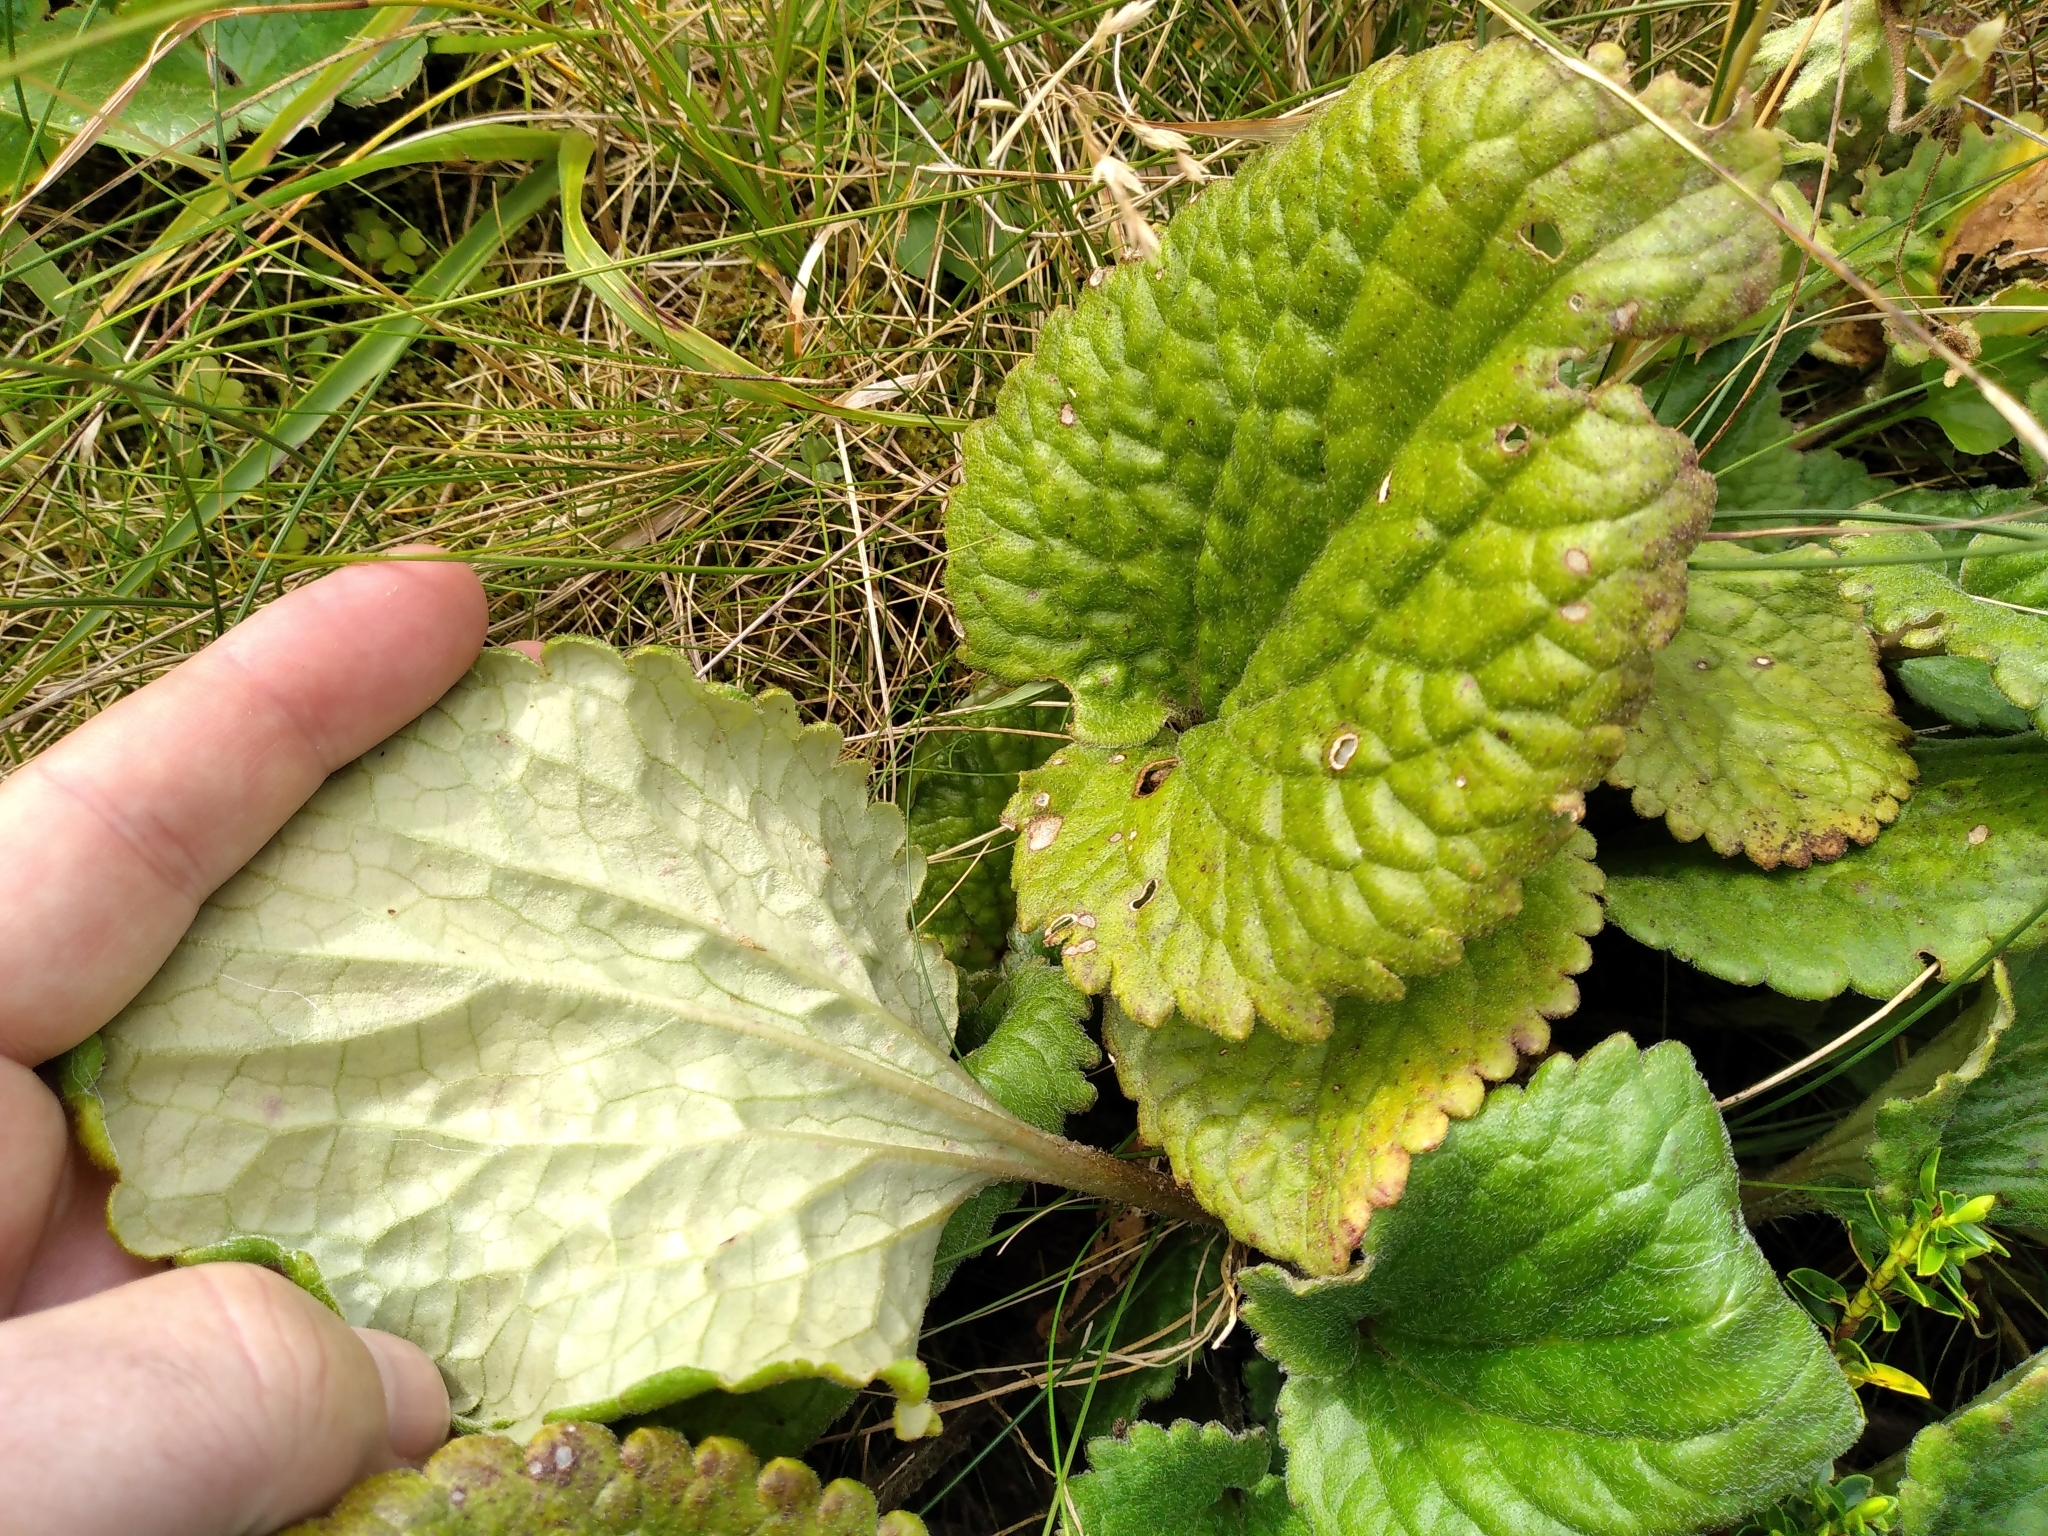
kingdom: Plantae
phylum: Tracheophyta
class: Magnoliopsida
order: Lamiales
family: Plantaginaceae
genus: Ourisia
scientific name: Ourisia macrophylla
